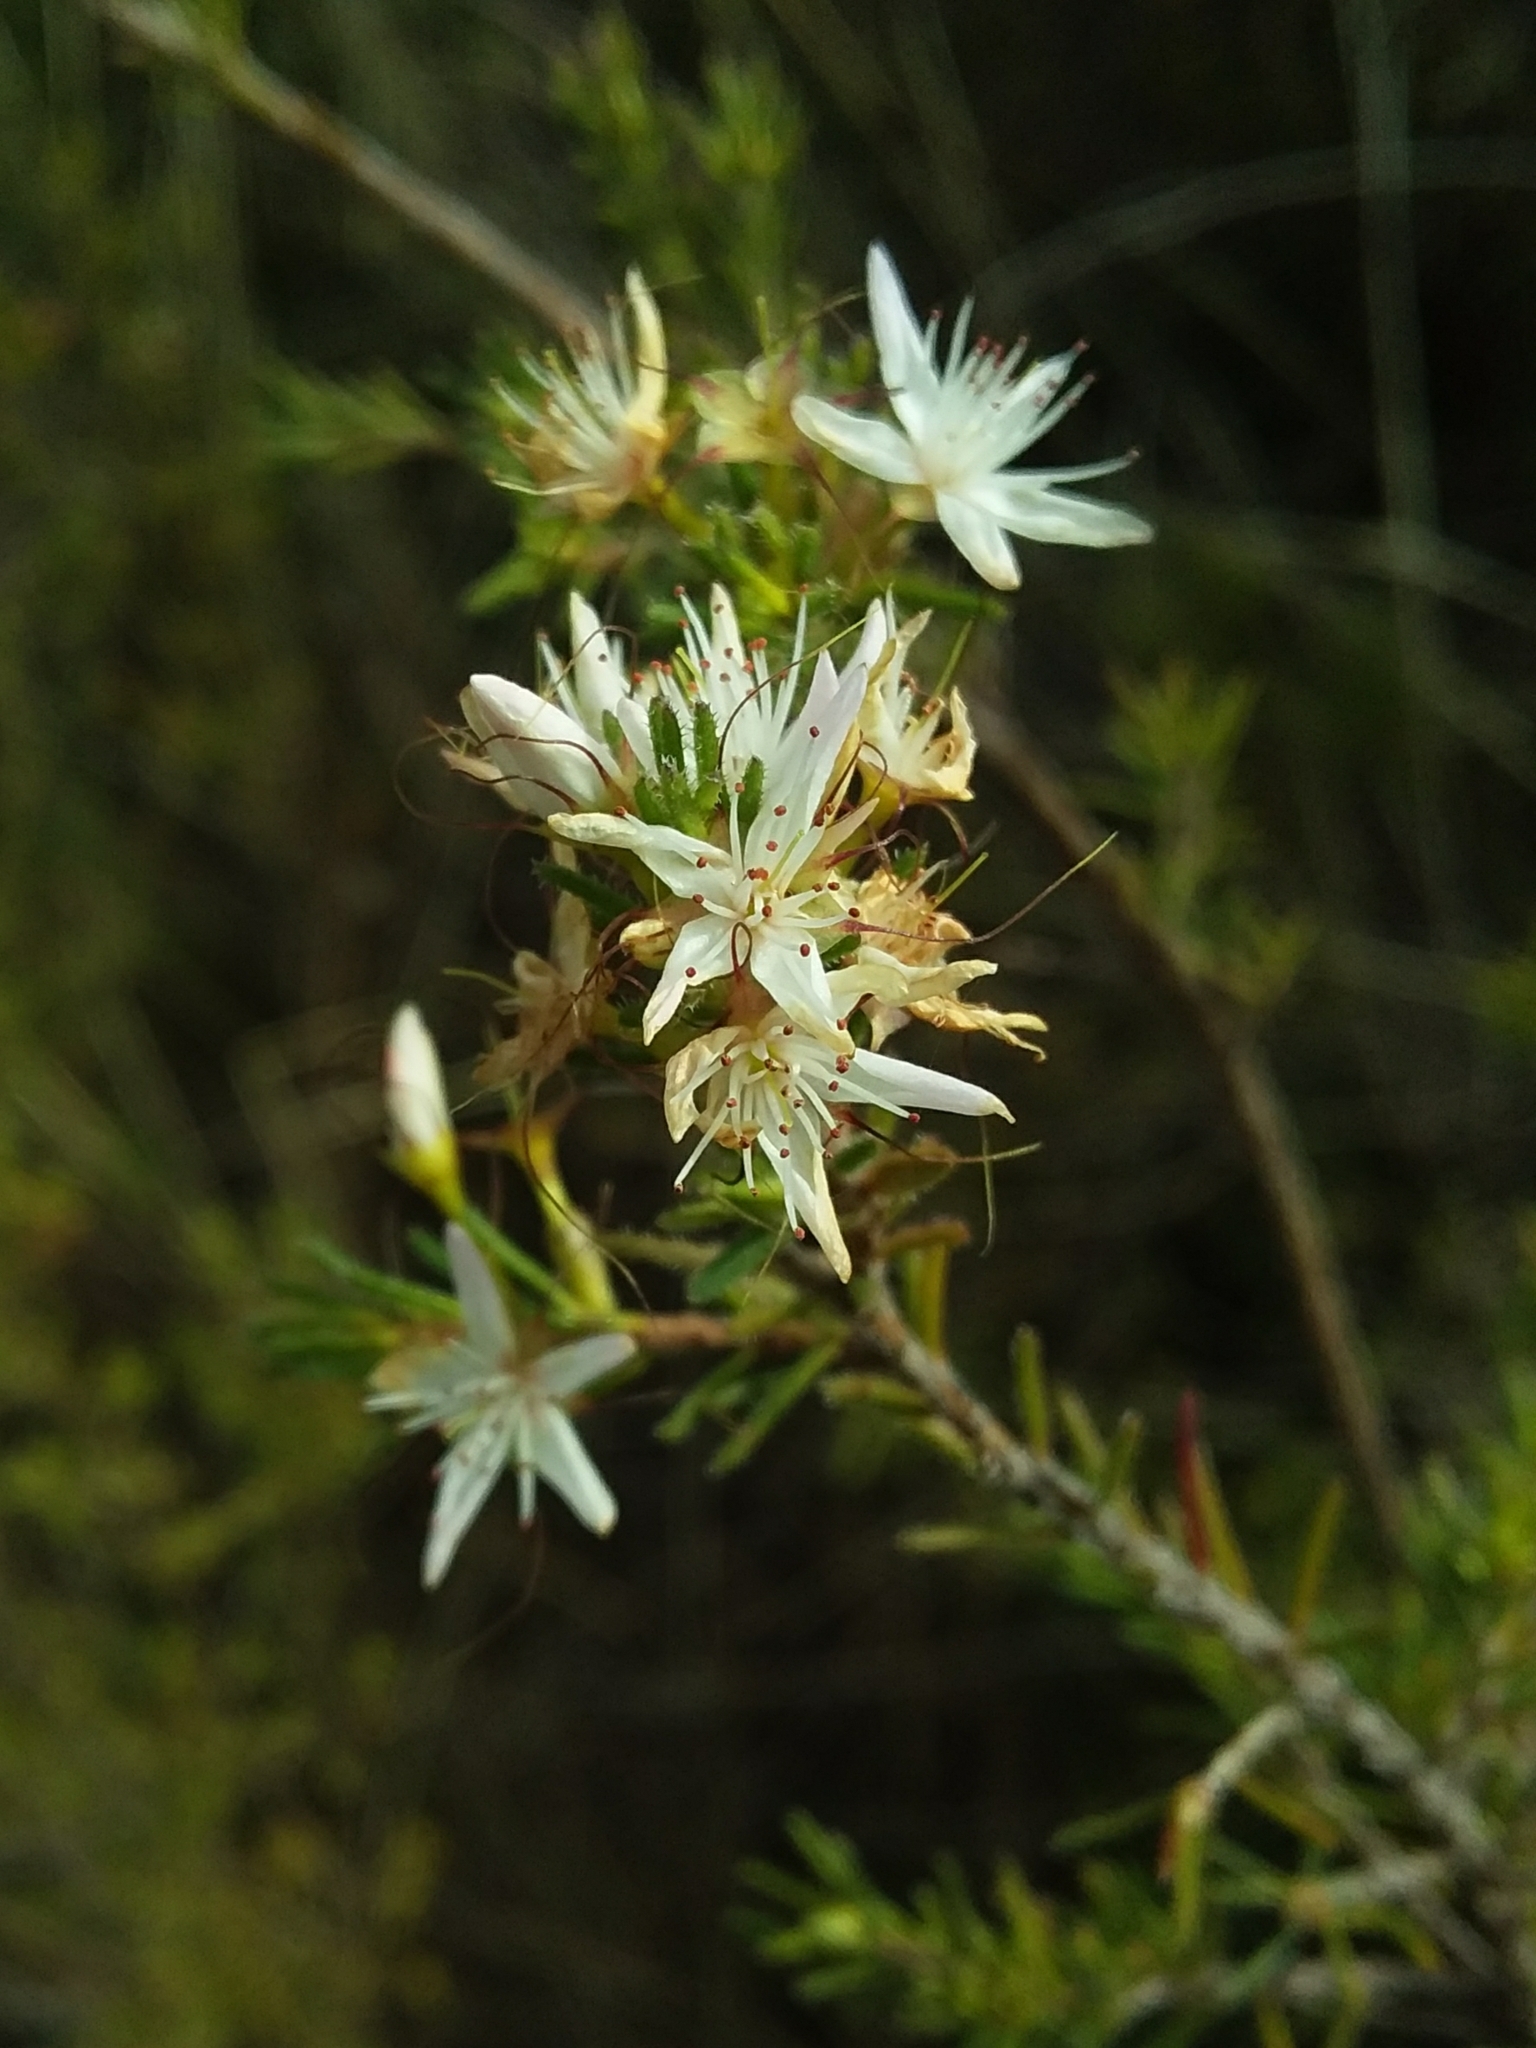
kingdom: Plantae
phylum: Tracheophyta
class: Magnoliopsida
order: Myrtales
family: Myrtaceae
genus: Calytrix
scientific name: Calytrix tetragona
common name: Common fringe myrtle
